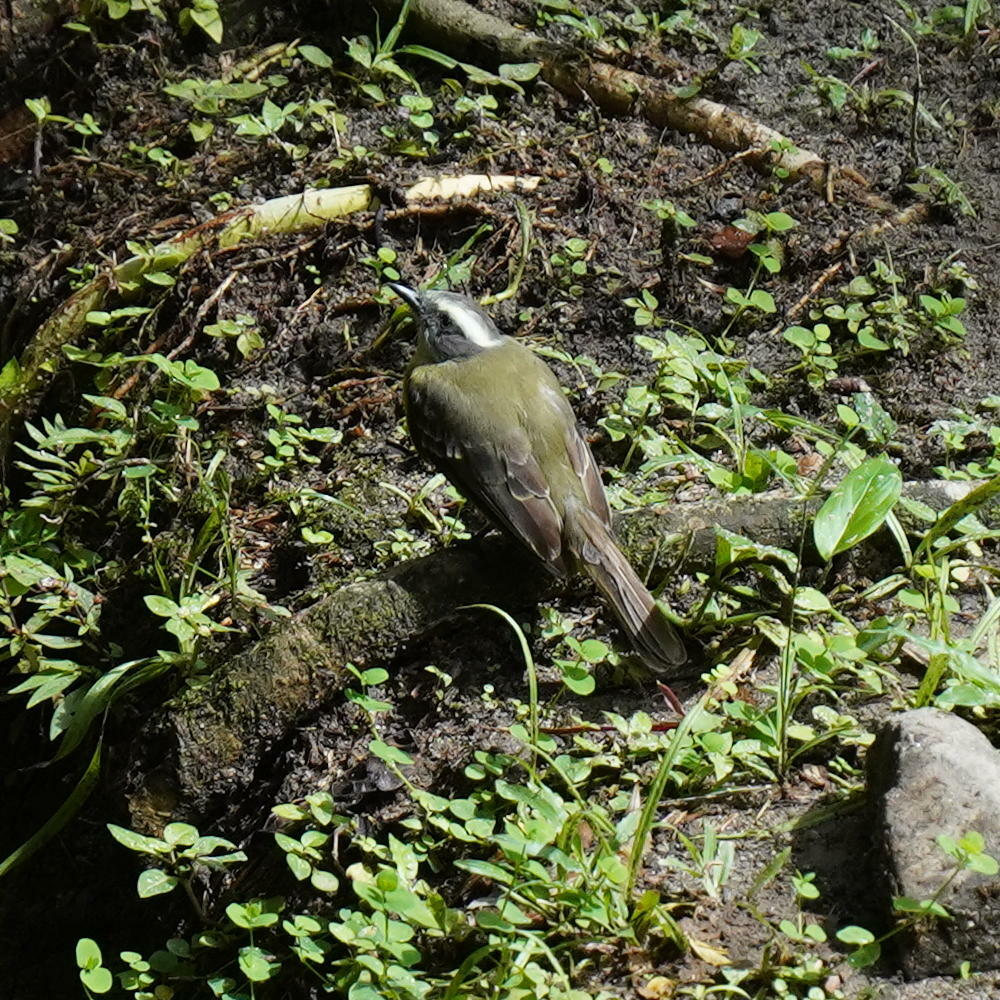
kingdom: Animalia
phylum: Chordata
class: Aves
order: Passeriformes
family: Tyrannidae
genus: Myiozetetes
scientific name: Myiozetetes similis
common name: Social flycatcher
